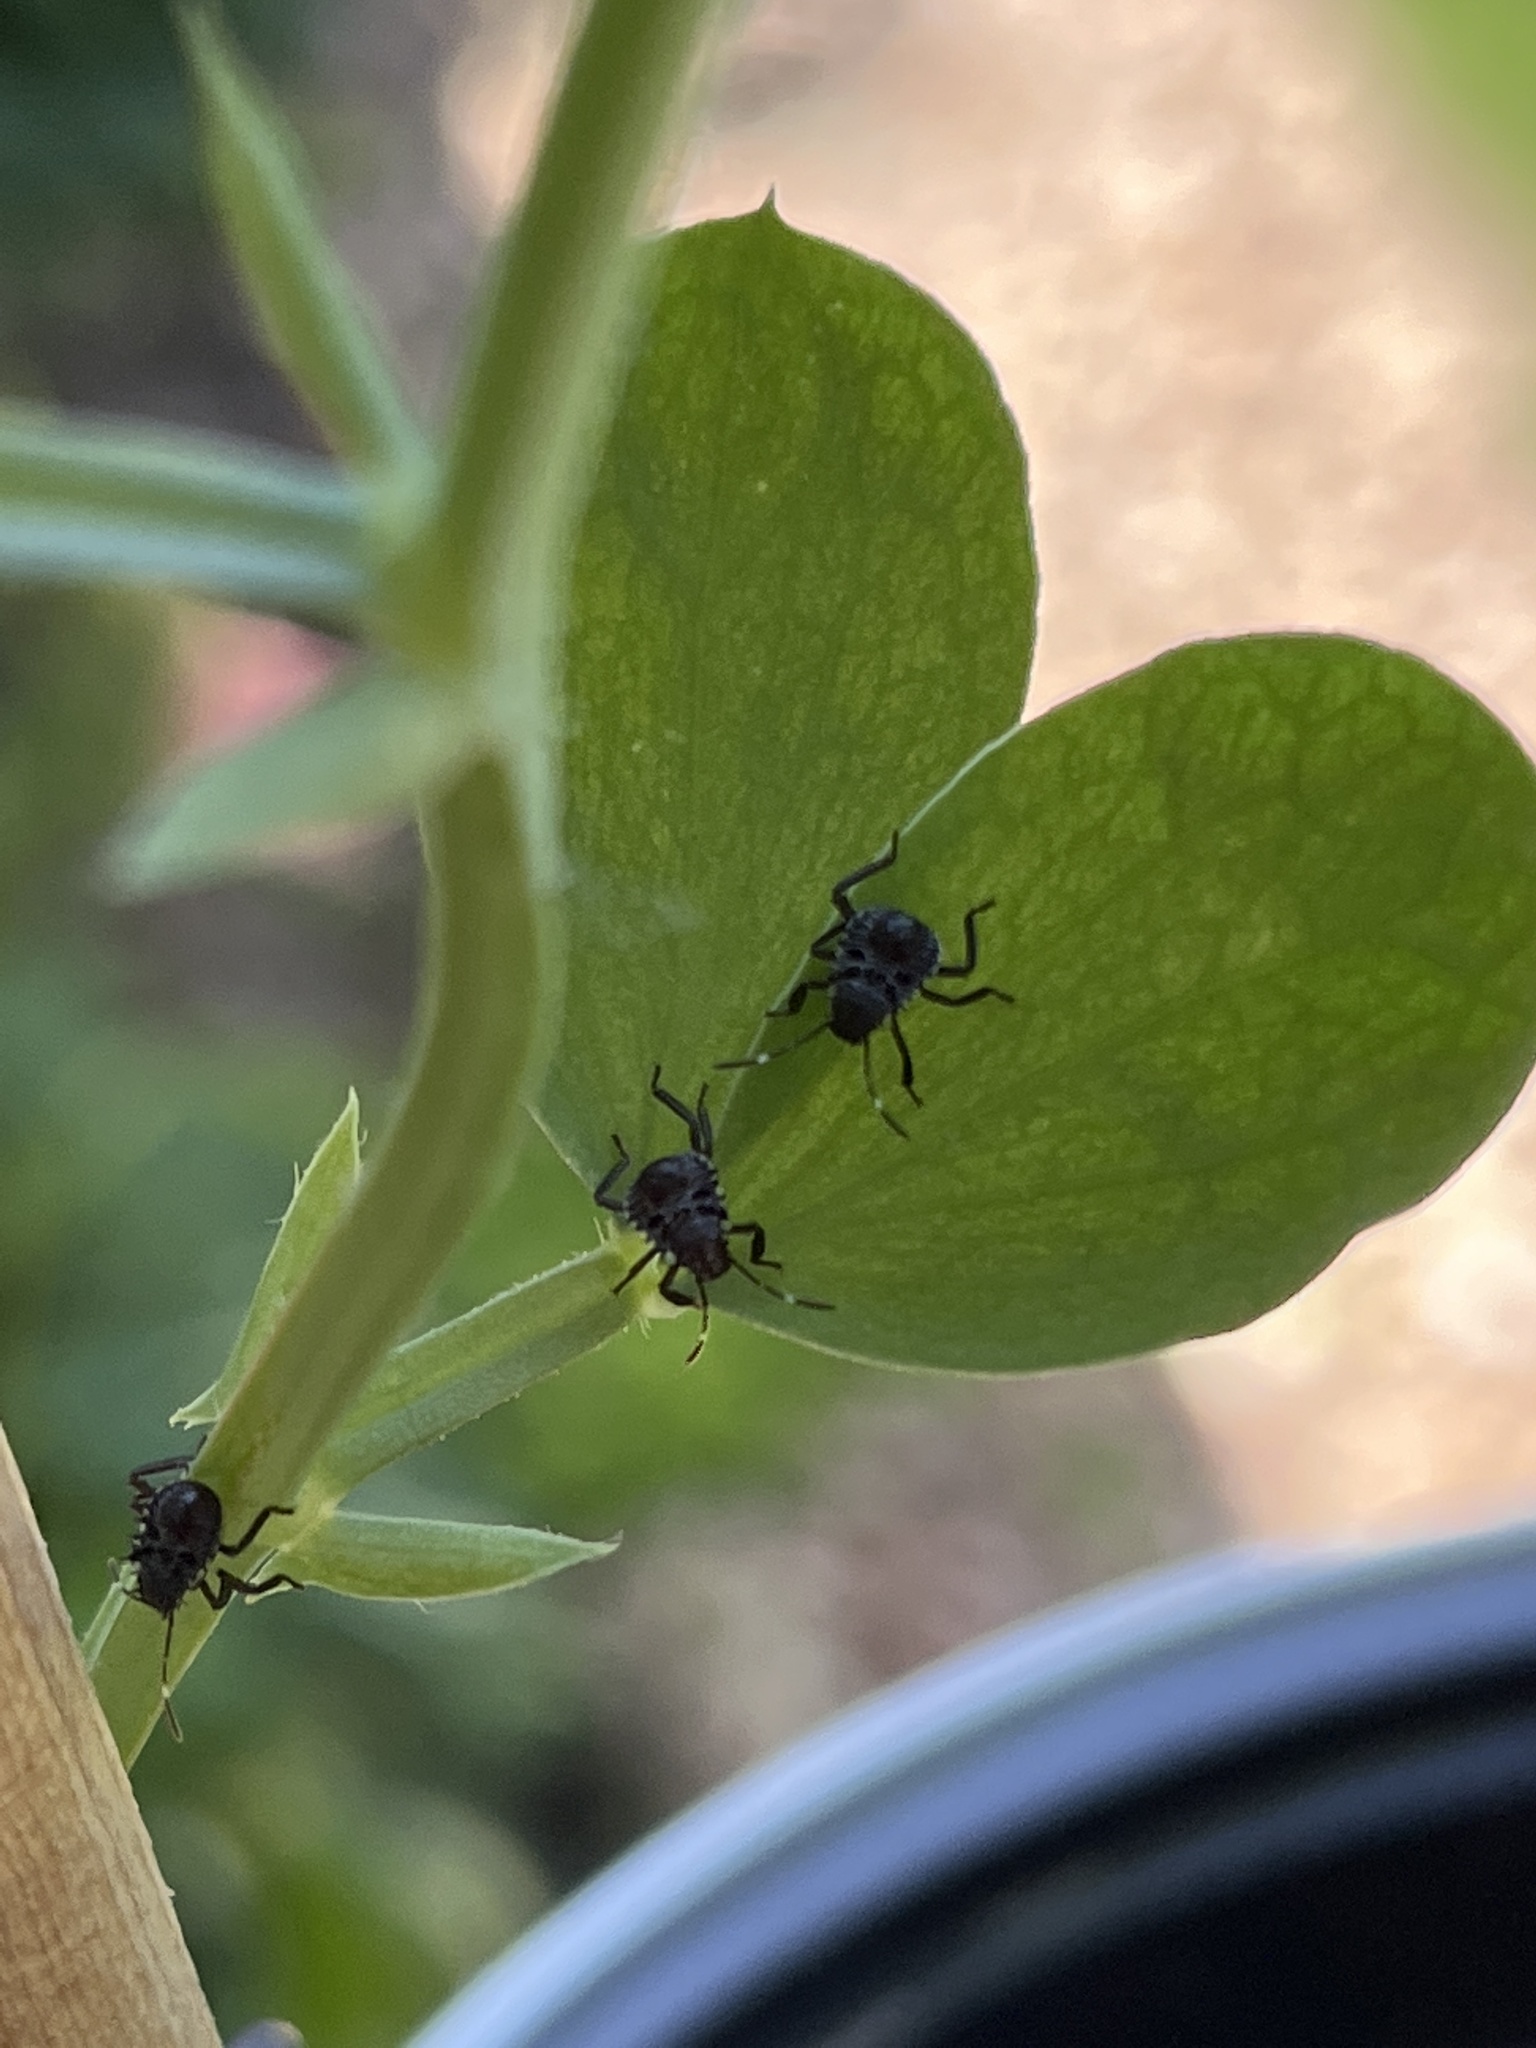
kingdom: Animalia
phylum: Arthropoda
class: Insecta
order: Hemiptera
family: Pentatomidae
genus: Halyomorpha
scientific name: Halyomorpha halys
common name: Brown marmorated stink bug
